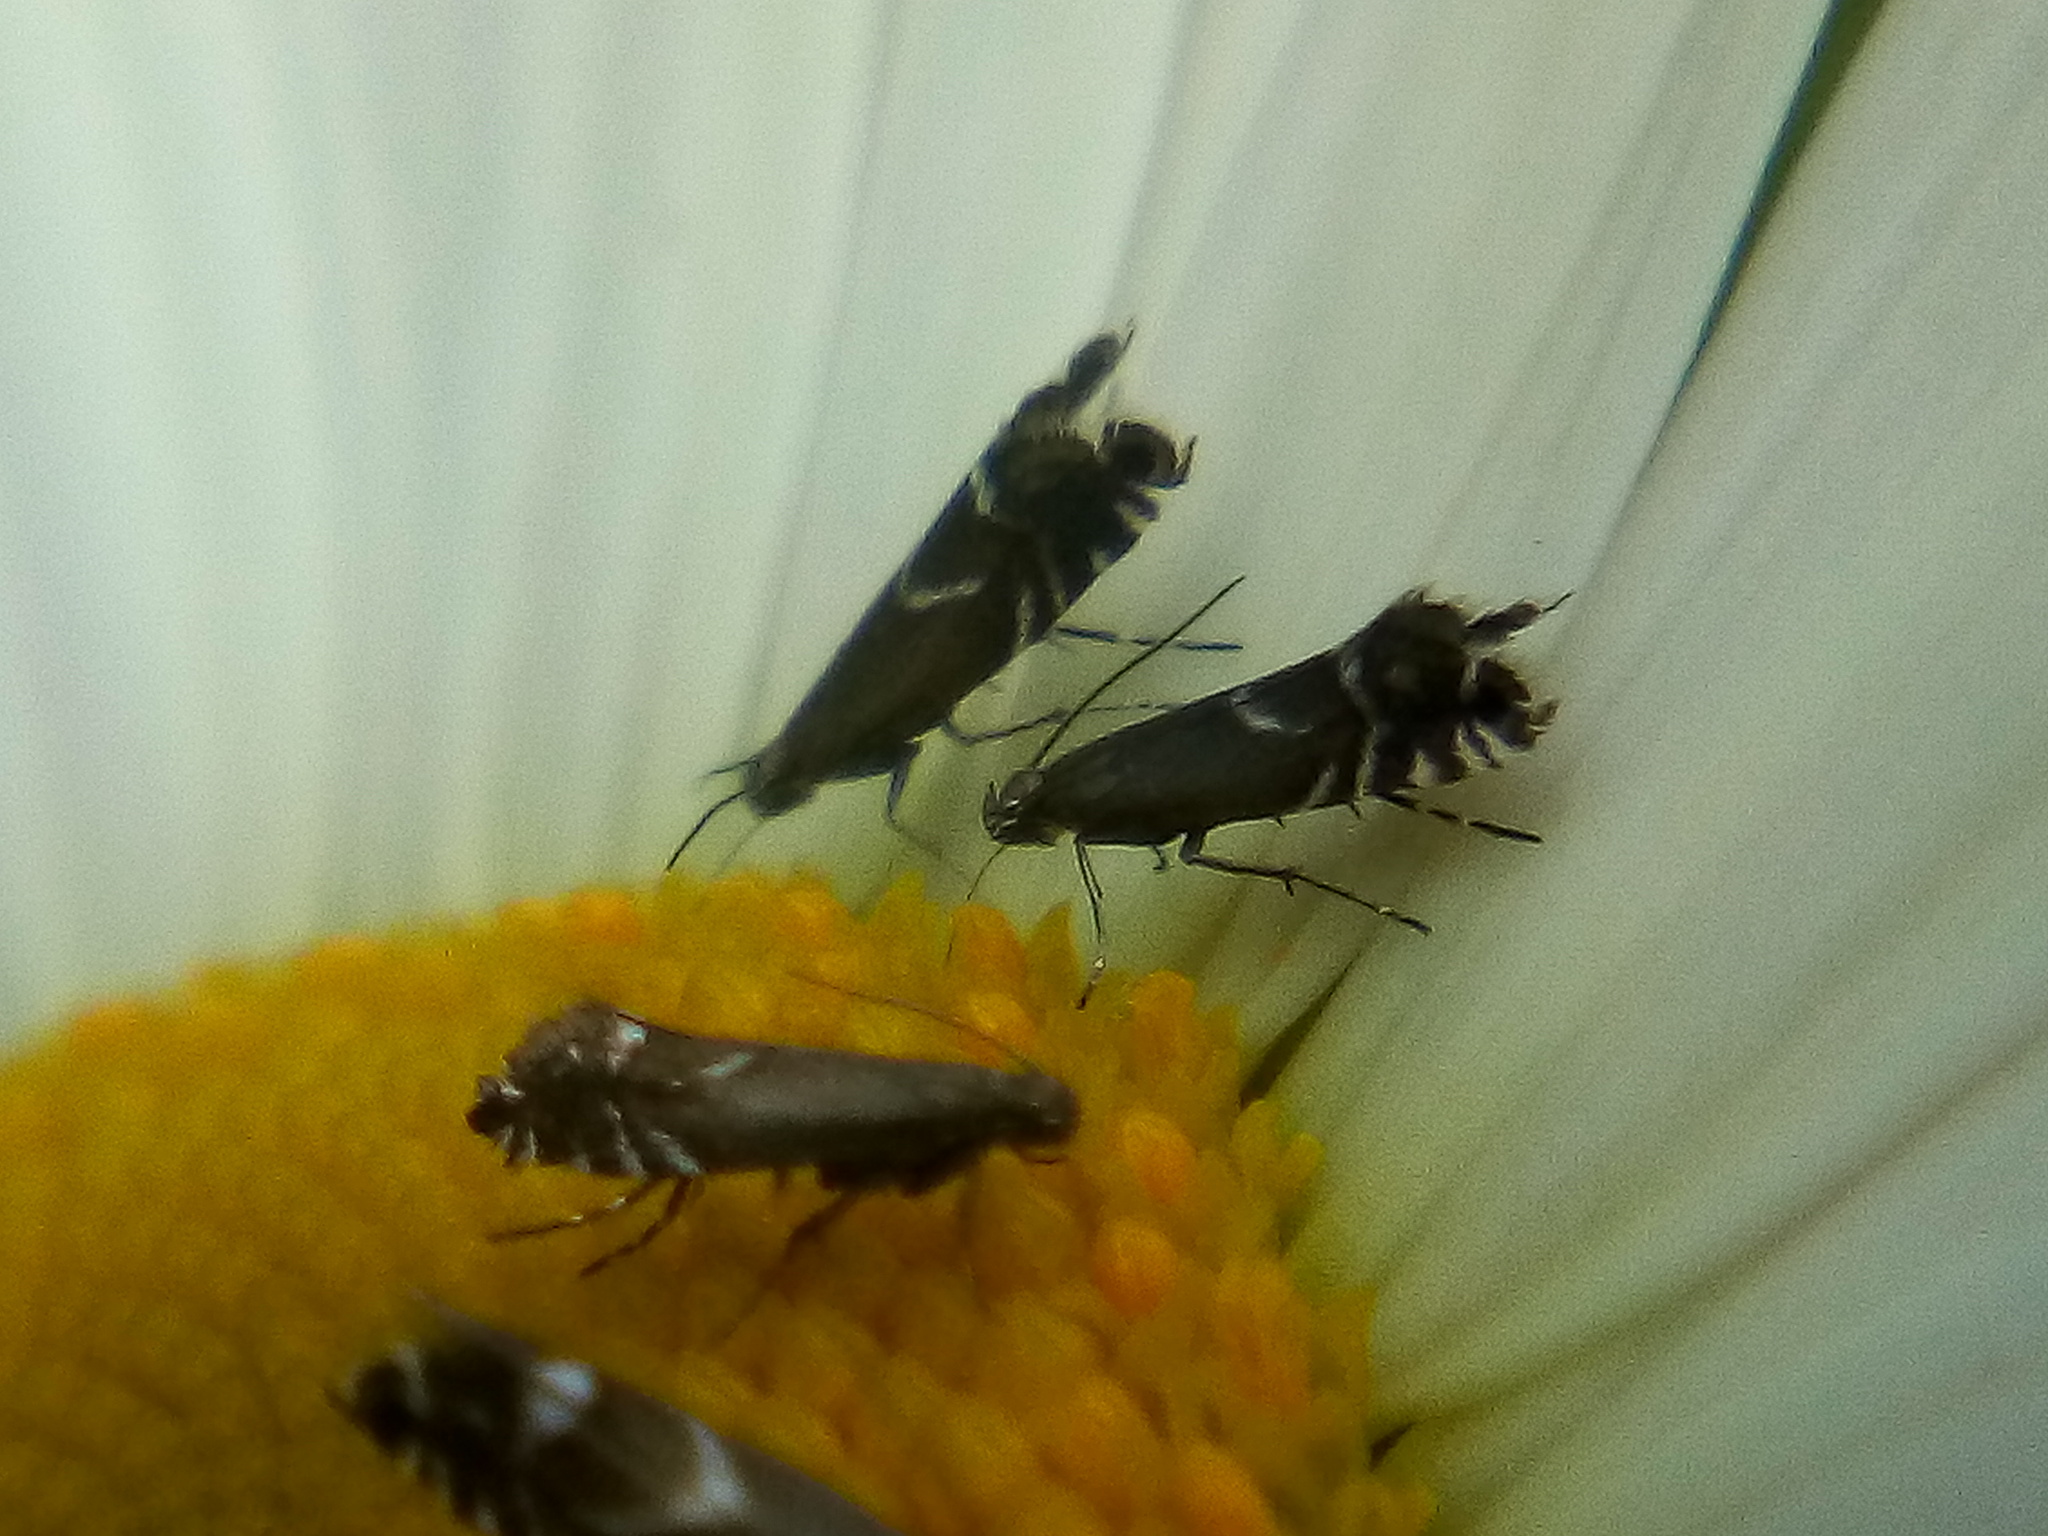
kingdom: Animalia
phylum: Arthropoda
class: Insecta
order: Lepidoptera
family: Glyphipterigidae
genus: Glyphipterix
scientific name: Glyphipterix simpliciella
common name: Cocksfoot moth
